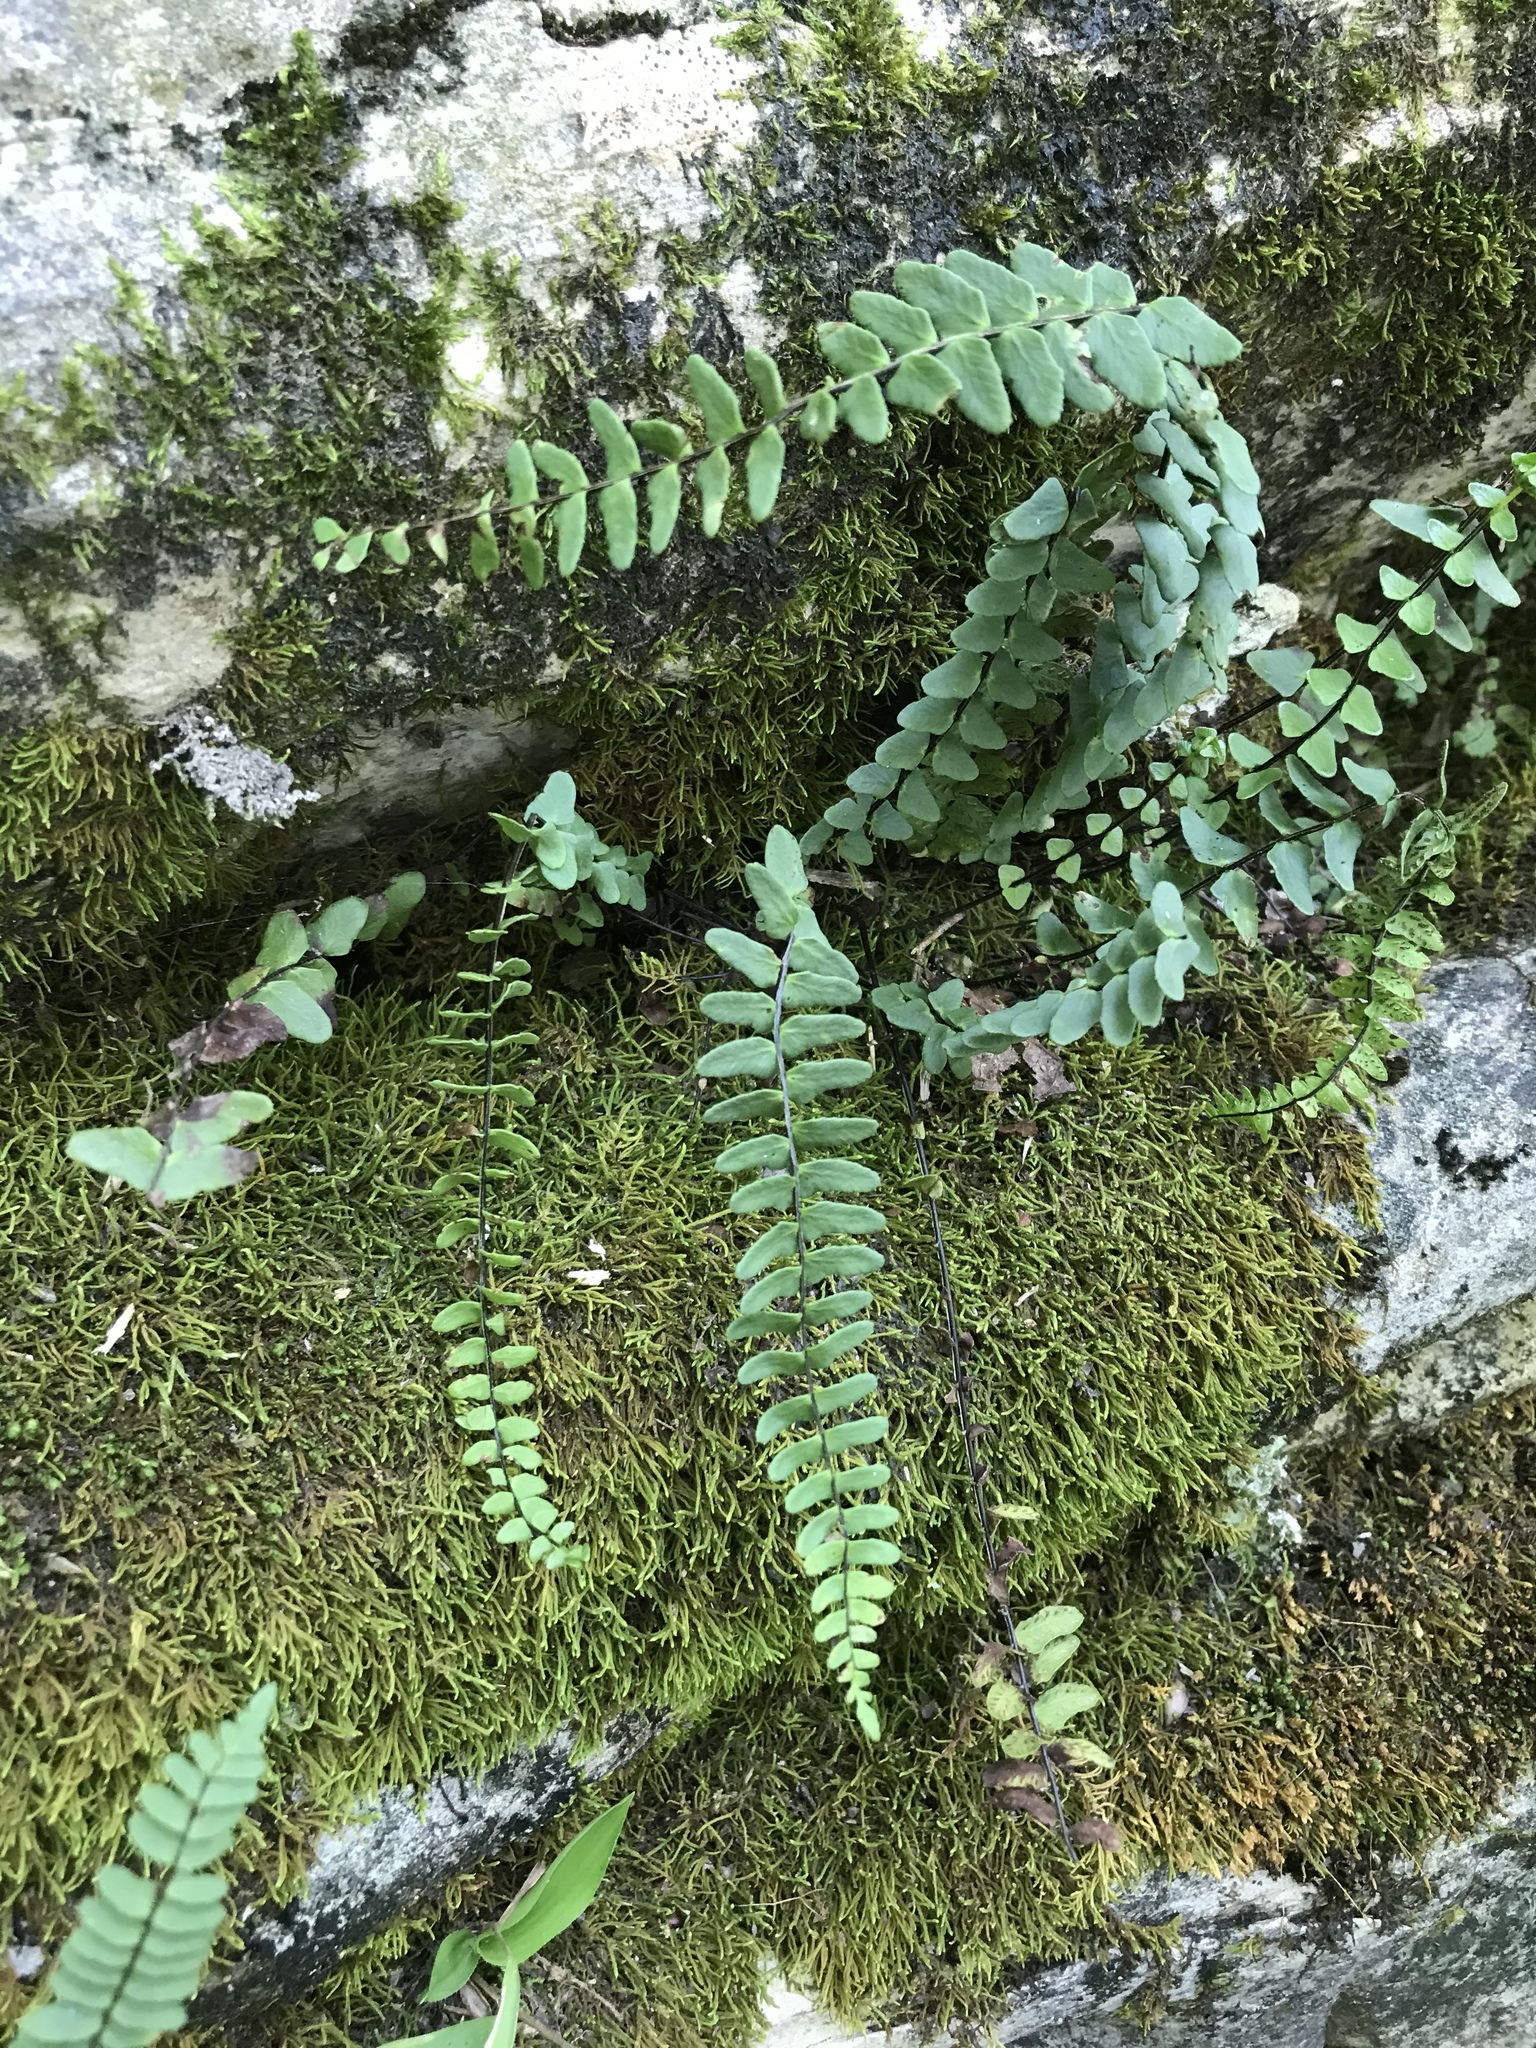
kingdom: Plantae
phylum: Tracheophyta
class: Polypodiopsida
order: Polypodiales
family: Aspleniaceae
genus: Asplenium
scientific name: Asplenium platyneuron
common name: Ebony spleenwort
